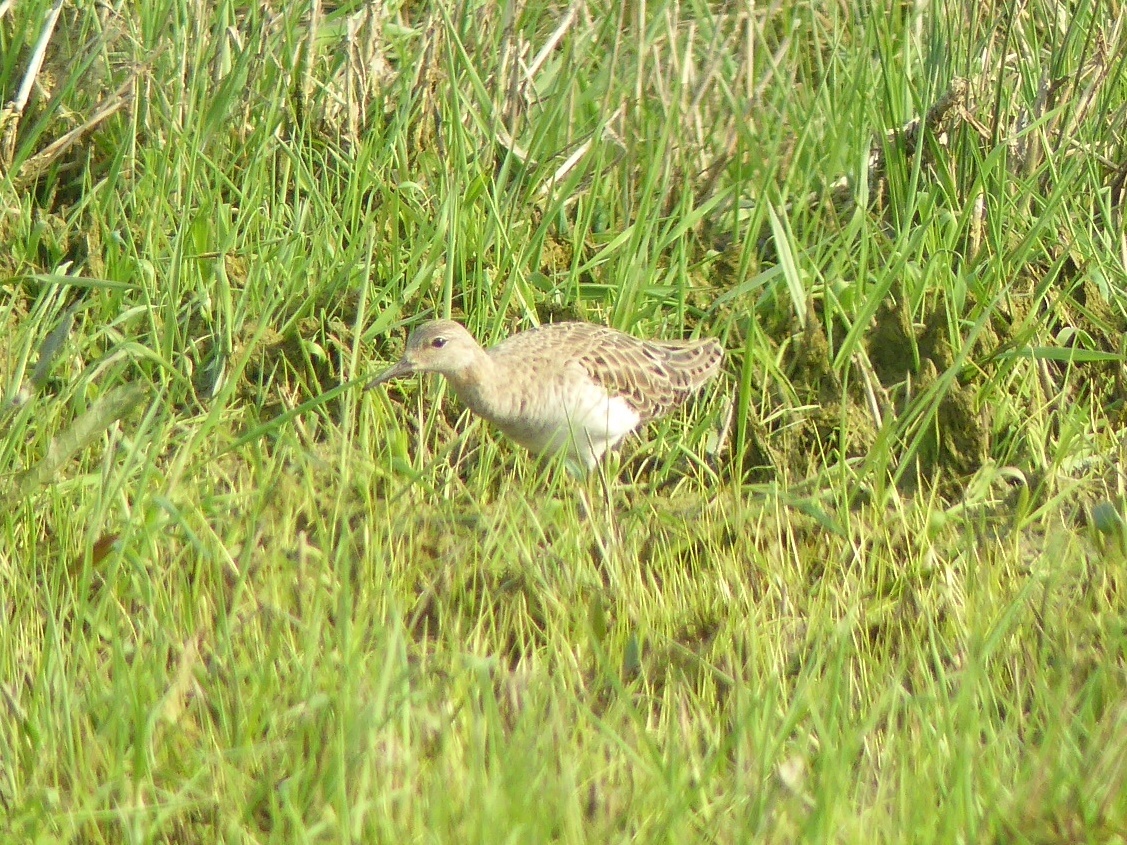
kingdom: Animalia
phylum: Chordata
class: Aves
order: Charadriiformes
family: Scolopacidae
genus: Calidris
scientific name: Calidris pugnax
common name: Ruff
